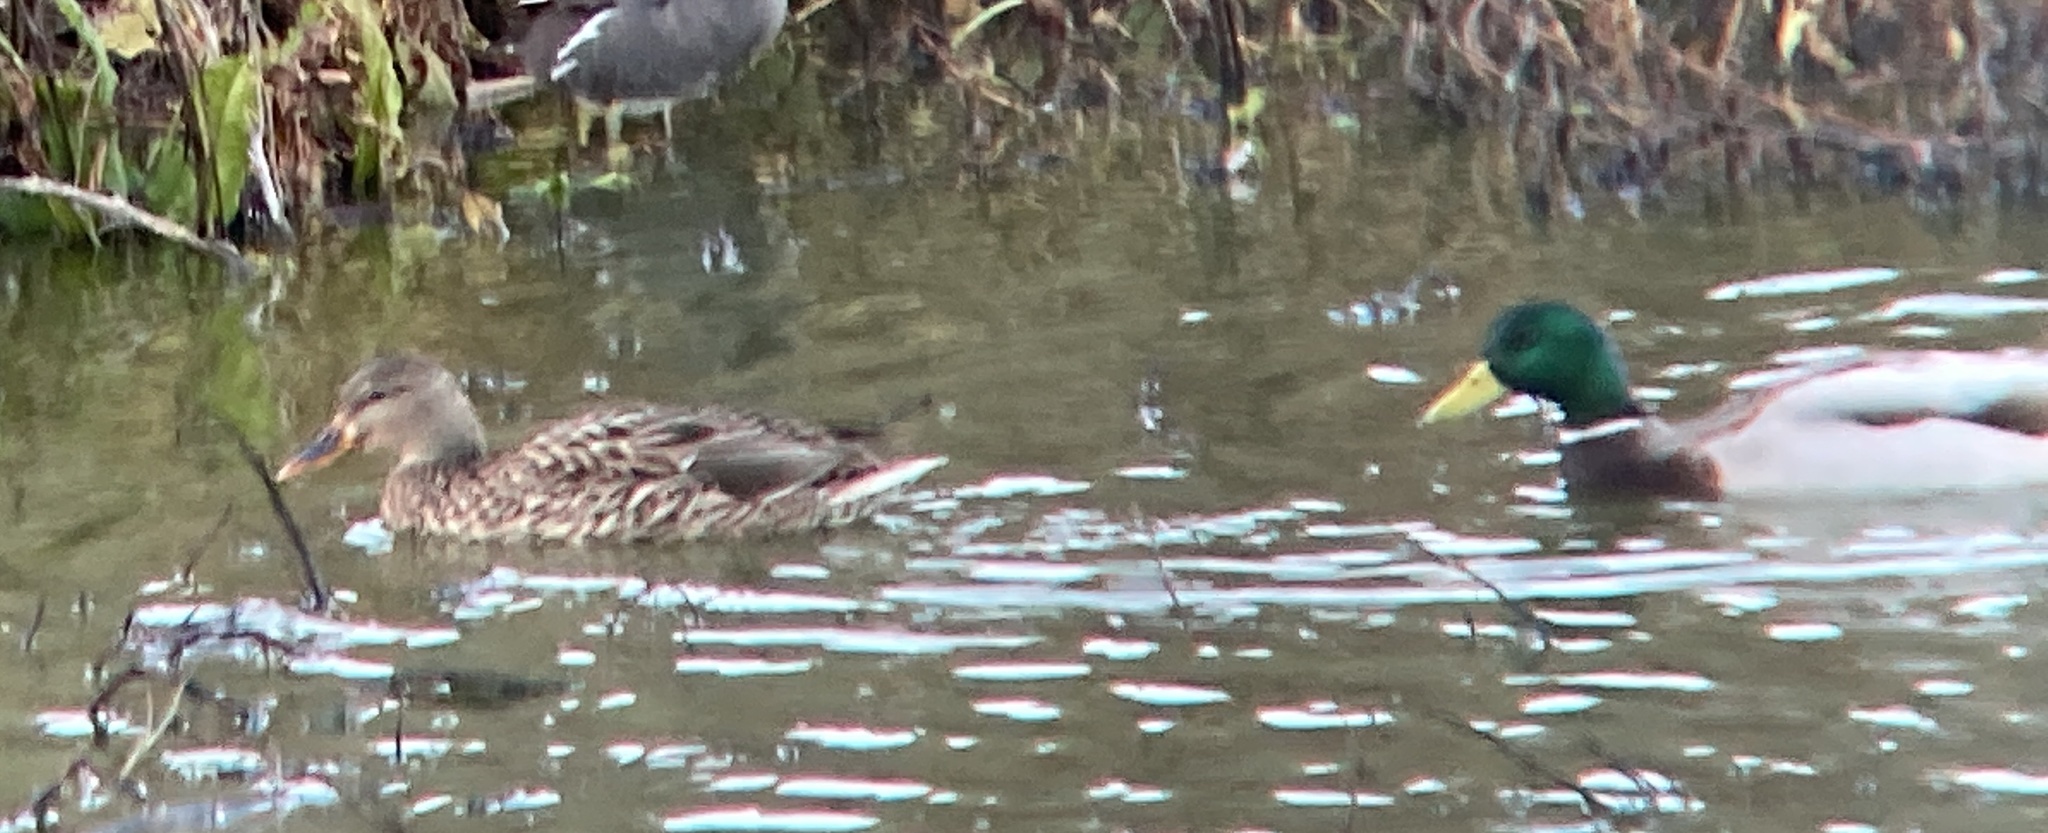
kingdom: Animalia
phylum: Chordata
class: Aves
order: Anseriformes
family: Anatidae
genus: Anas
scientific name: Anas platyrhynchos
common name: Mallard
